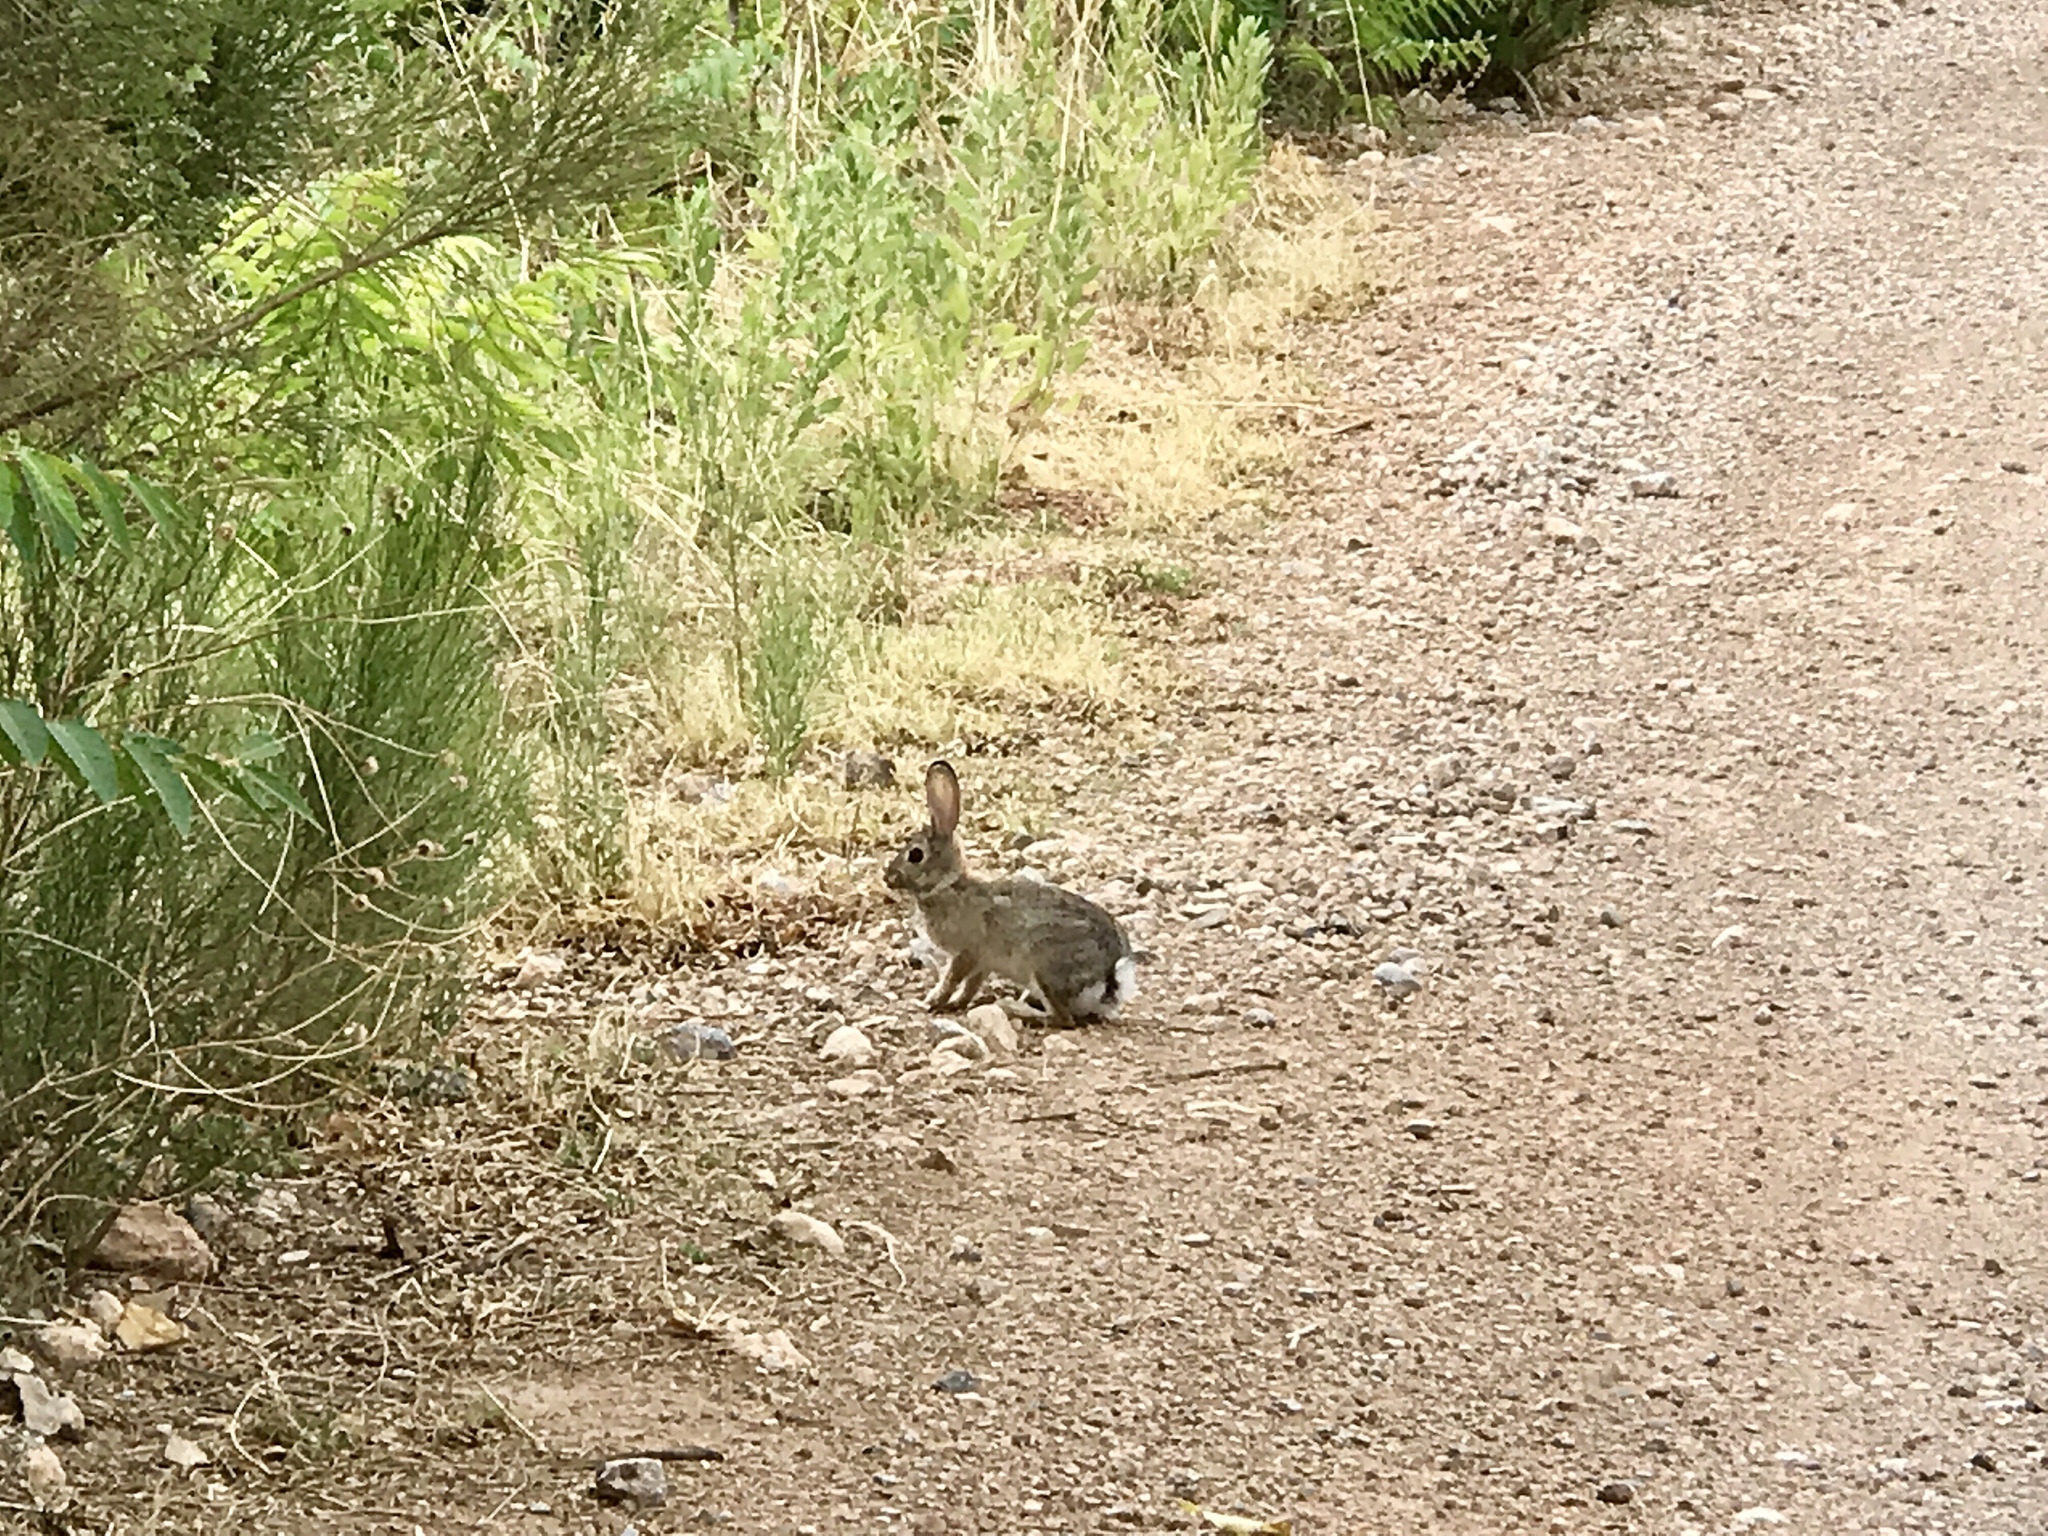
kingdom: Animalia
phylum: Chordata
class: Mammalia
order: Lagomorpha
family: Leporidae
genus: Sylvilagus
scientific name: Sylvilagus audubonii
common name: Desert cottontail
